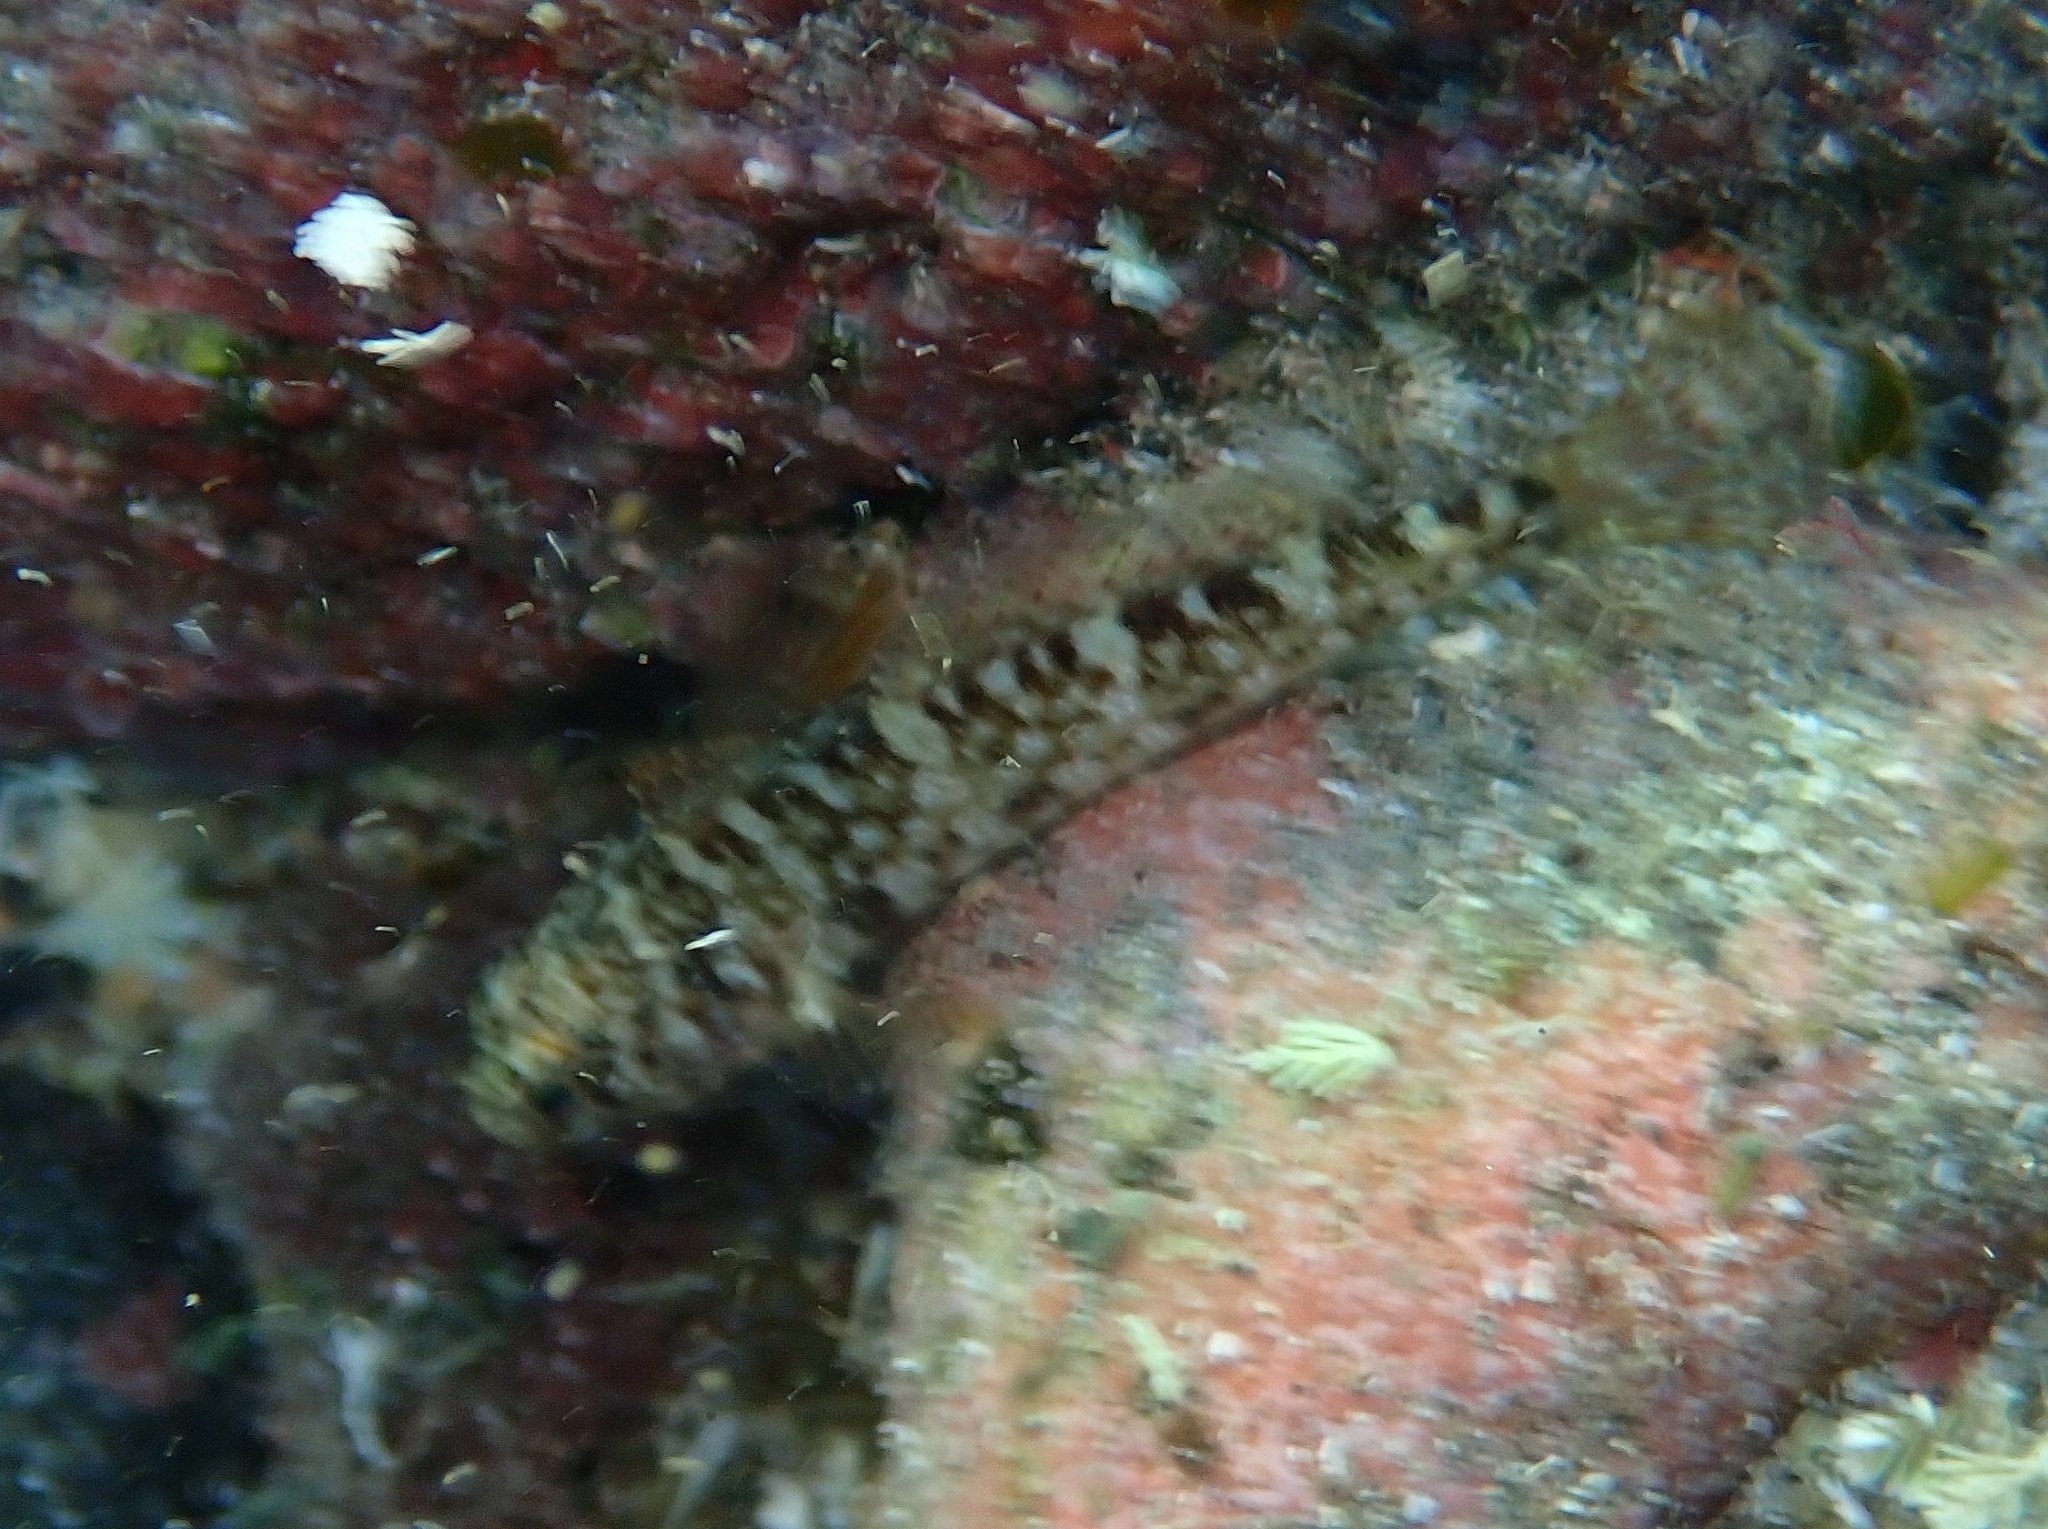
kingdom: Animalia
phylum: Chordata
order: Perciformes
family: Gobiidae
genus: Gobius
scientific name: Gobius paganellus
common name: Rock goby
